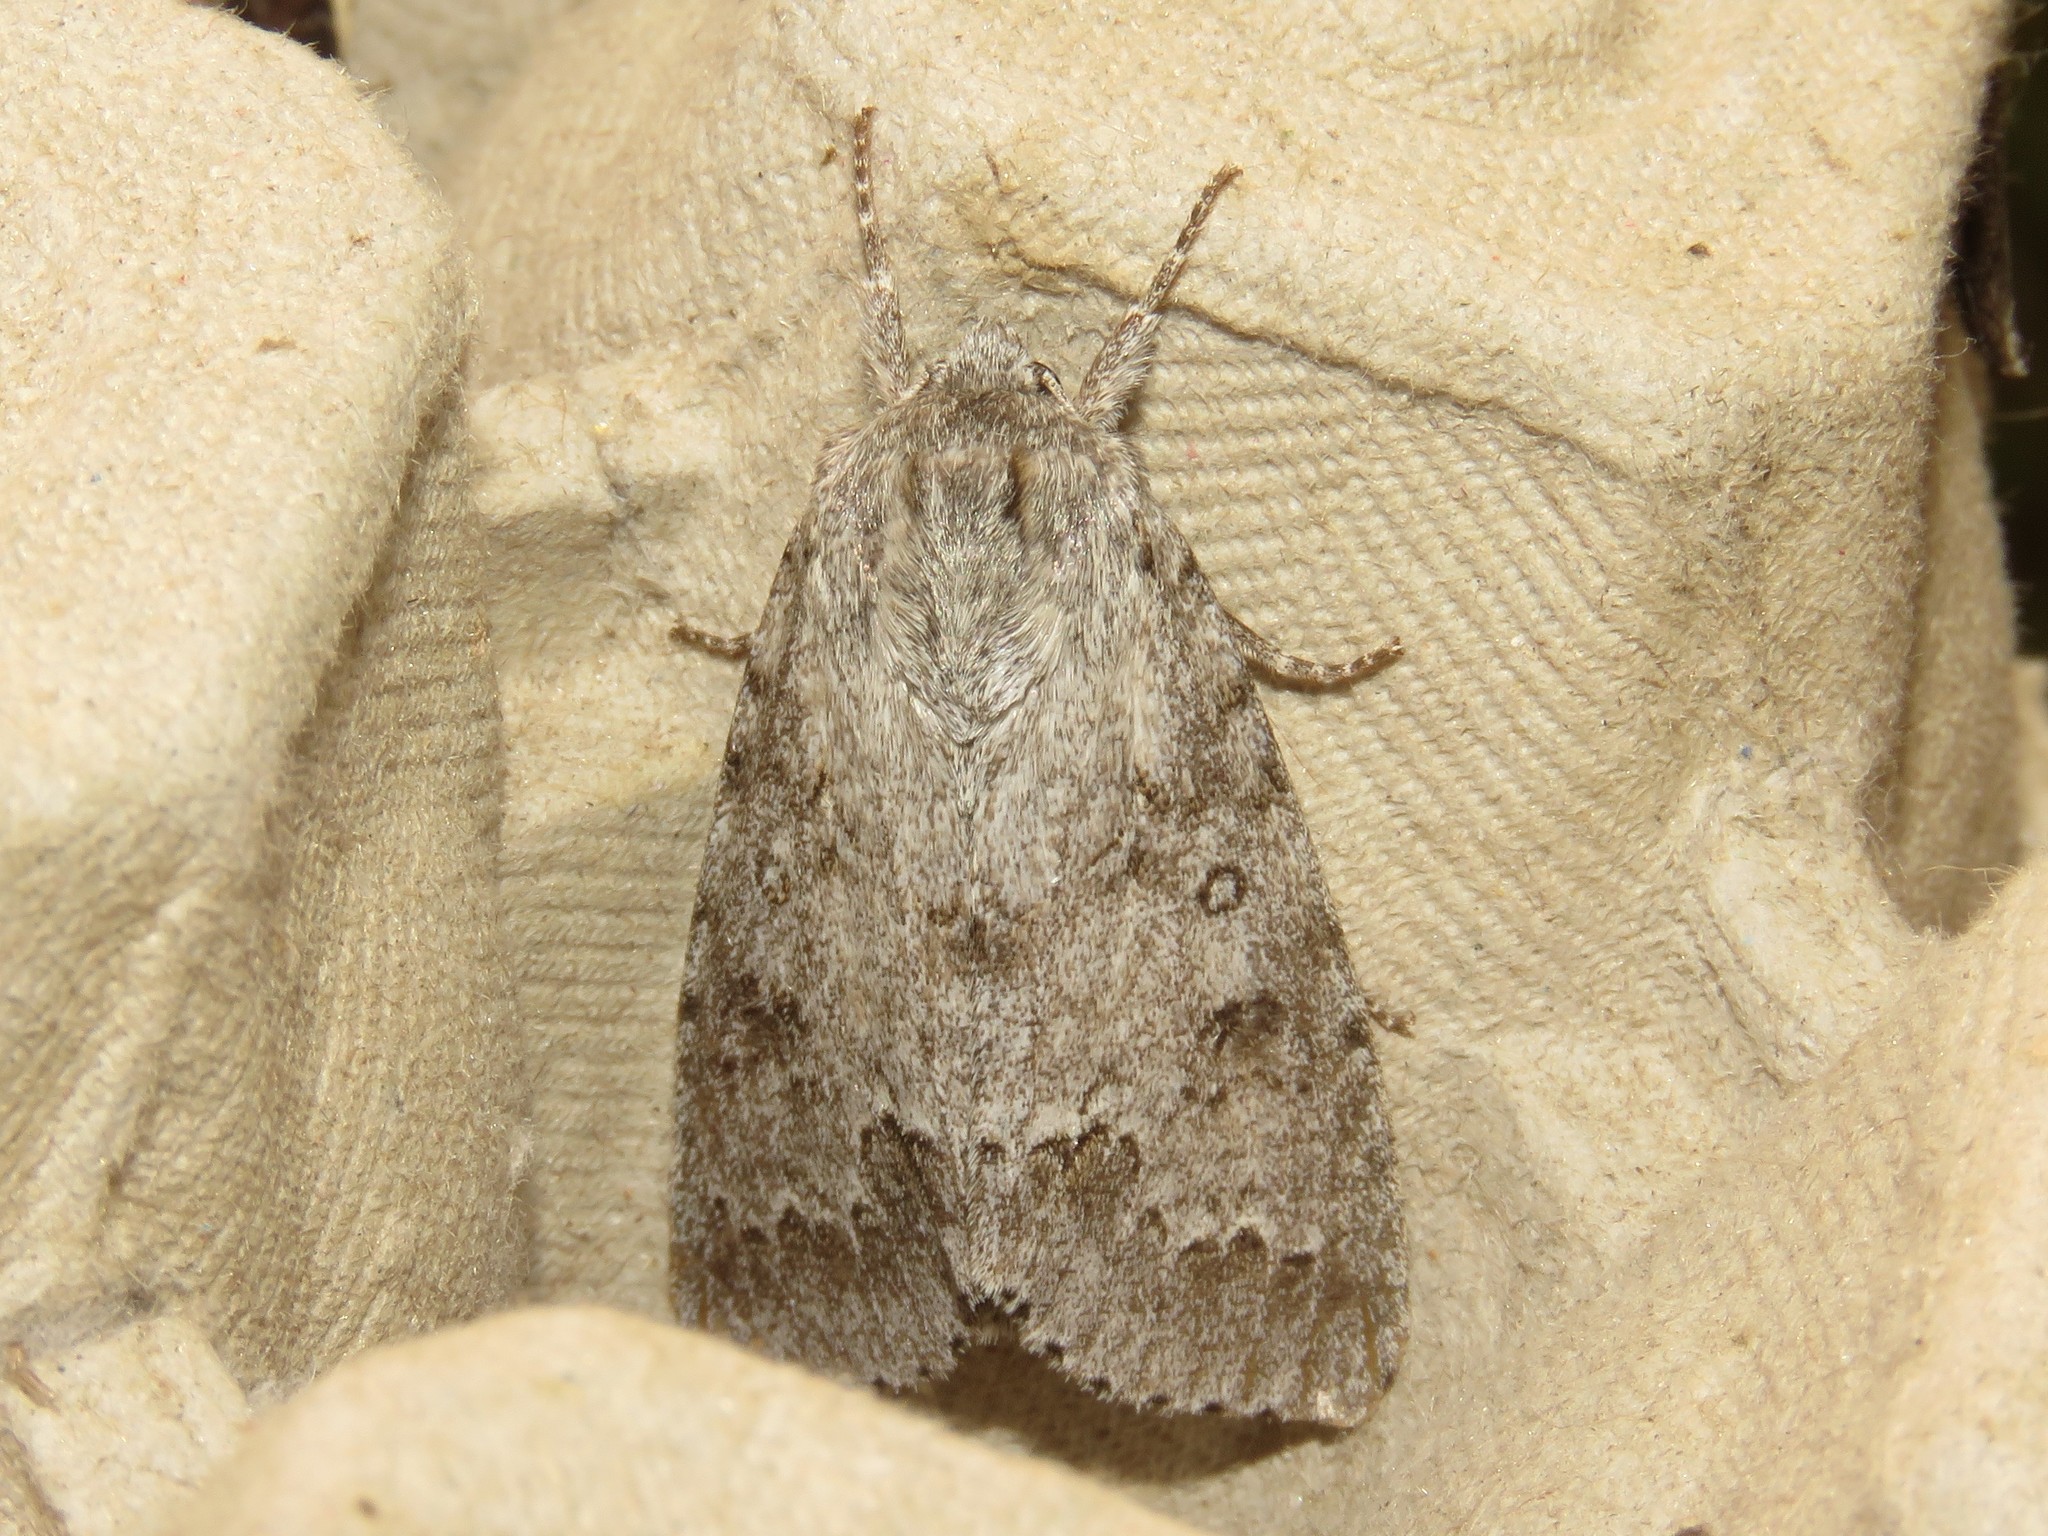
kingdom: Animalia
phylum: Arthropoda
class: Insecta
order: Lepidoptera
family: Noctuidae
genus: Acronicta
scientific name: Acronicta insita
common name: Large gray dagger
